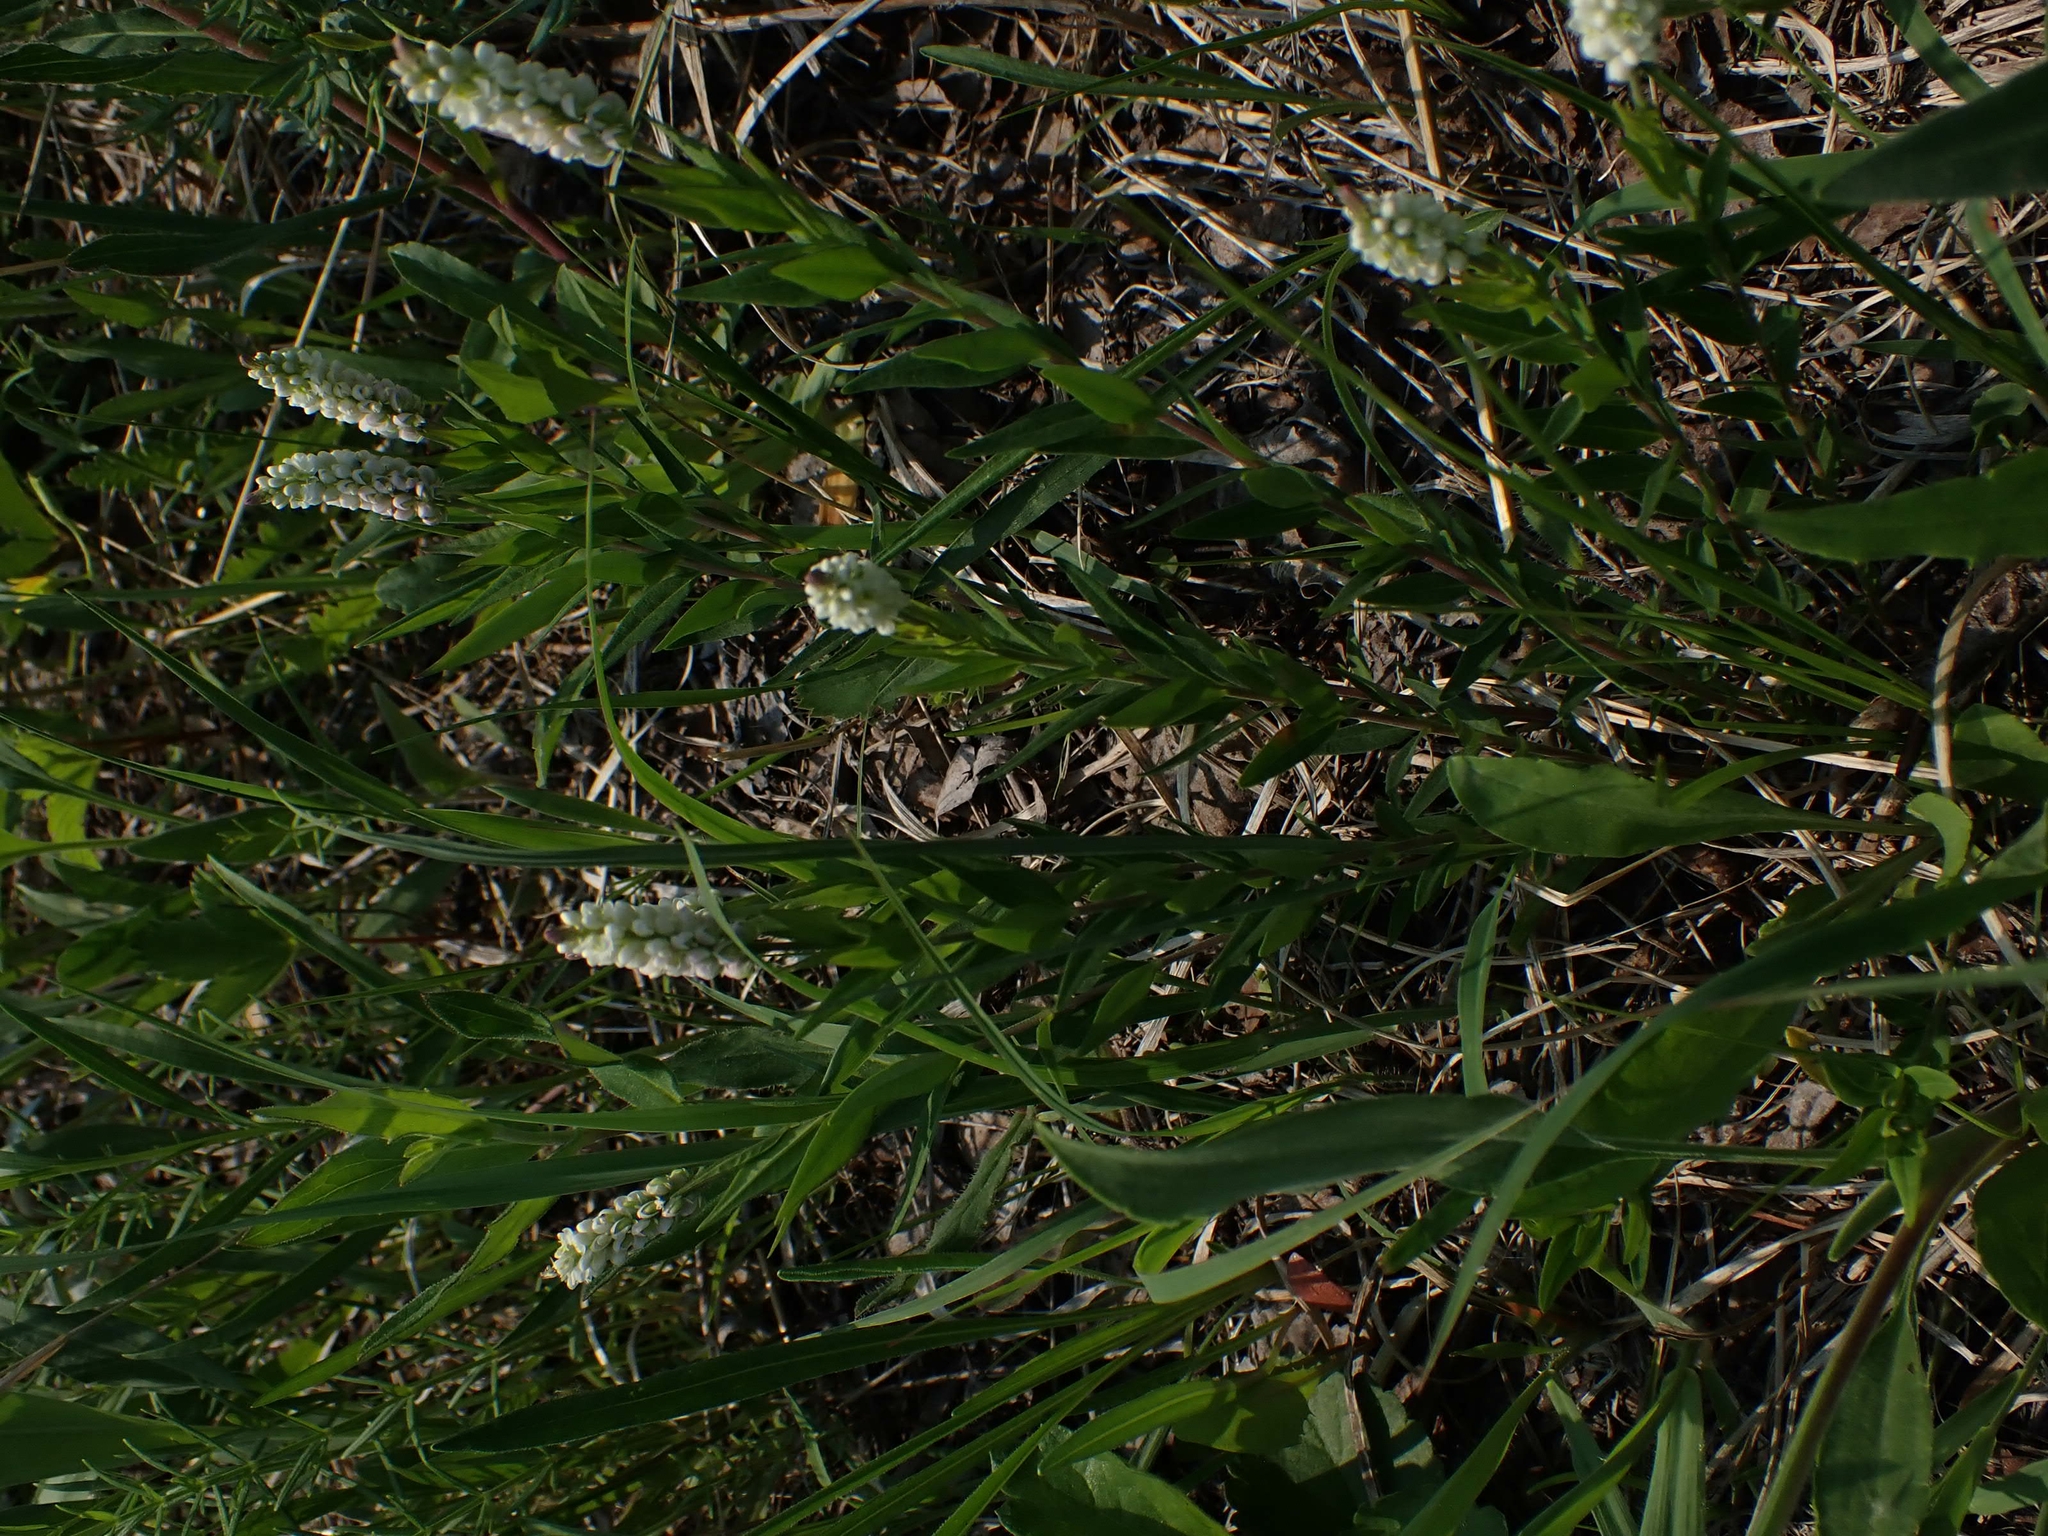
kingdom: Plantae
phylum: Tracheophyta
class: Magnoliopsida
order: Fabales
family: Polygalaceae
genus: Polygala
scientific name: Polygala senega
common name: Seneca snakeroot
